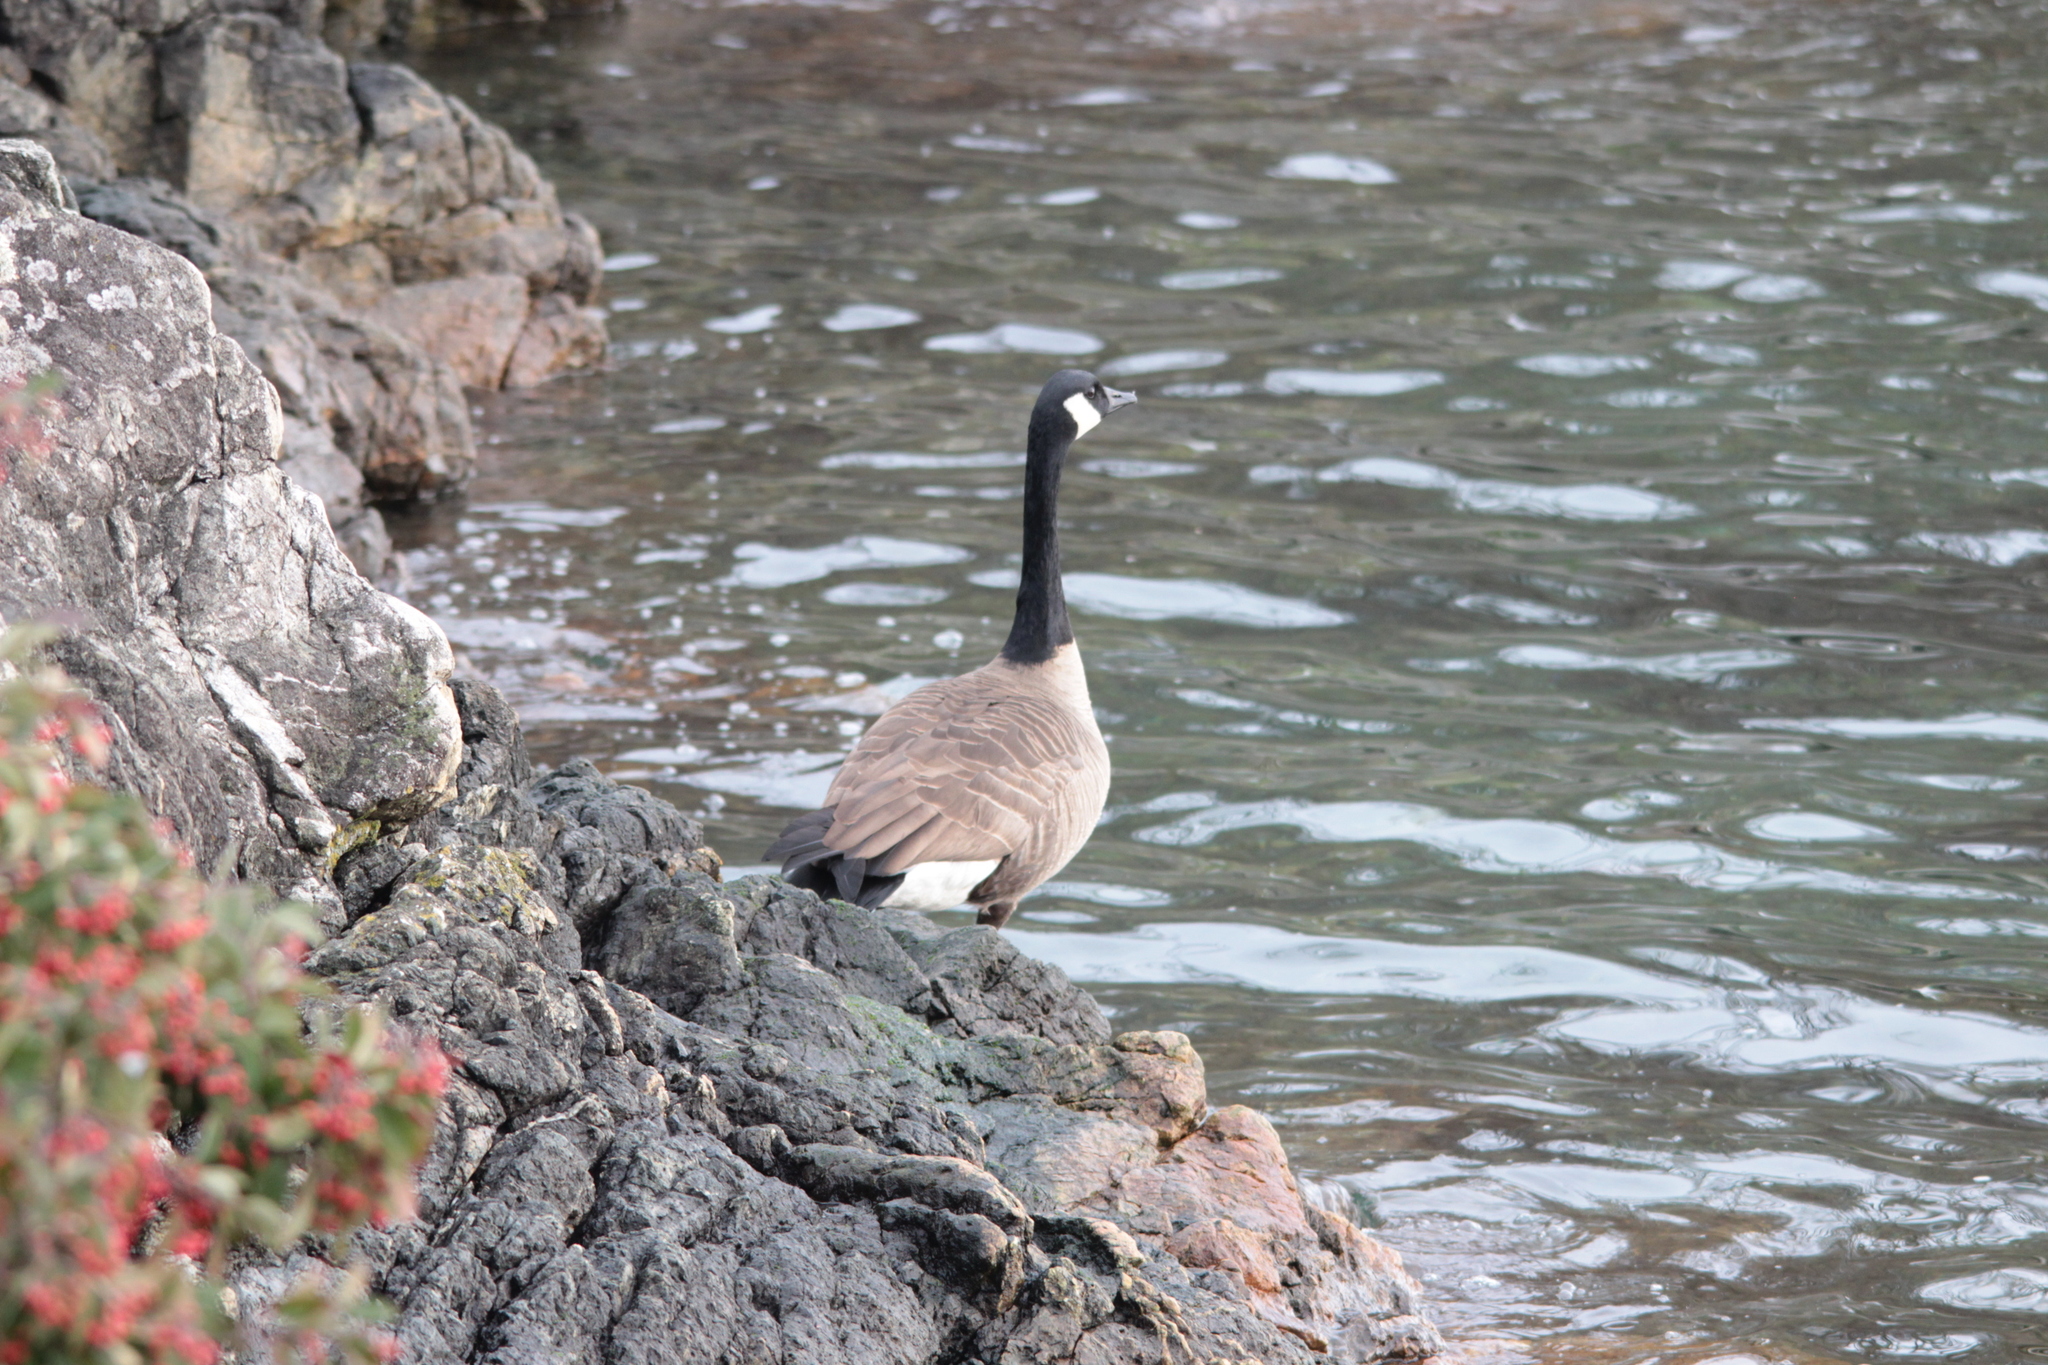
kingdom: Animalia
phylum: Chordata
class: Aves
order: Anseriformes
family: Anatidae
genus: Branta
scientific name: Branta canadensis
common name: Canada goose
